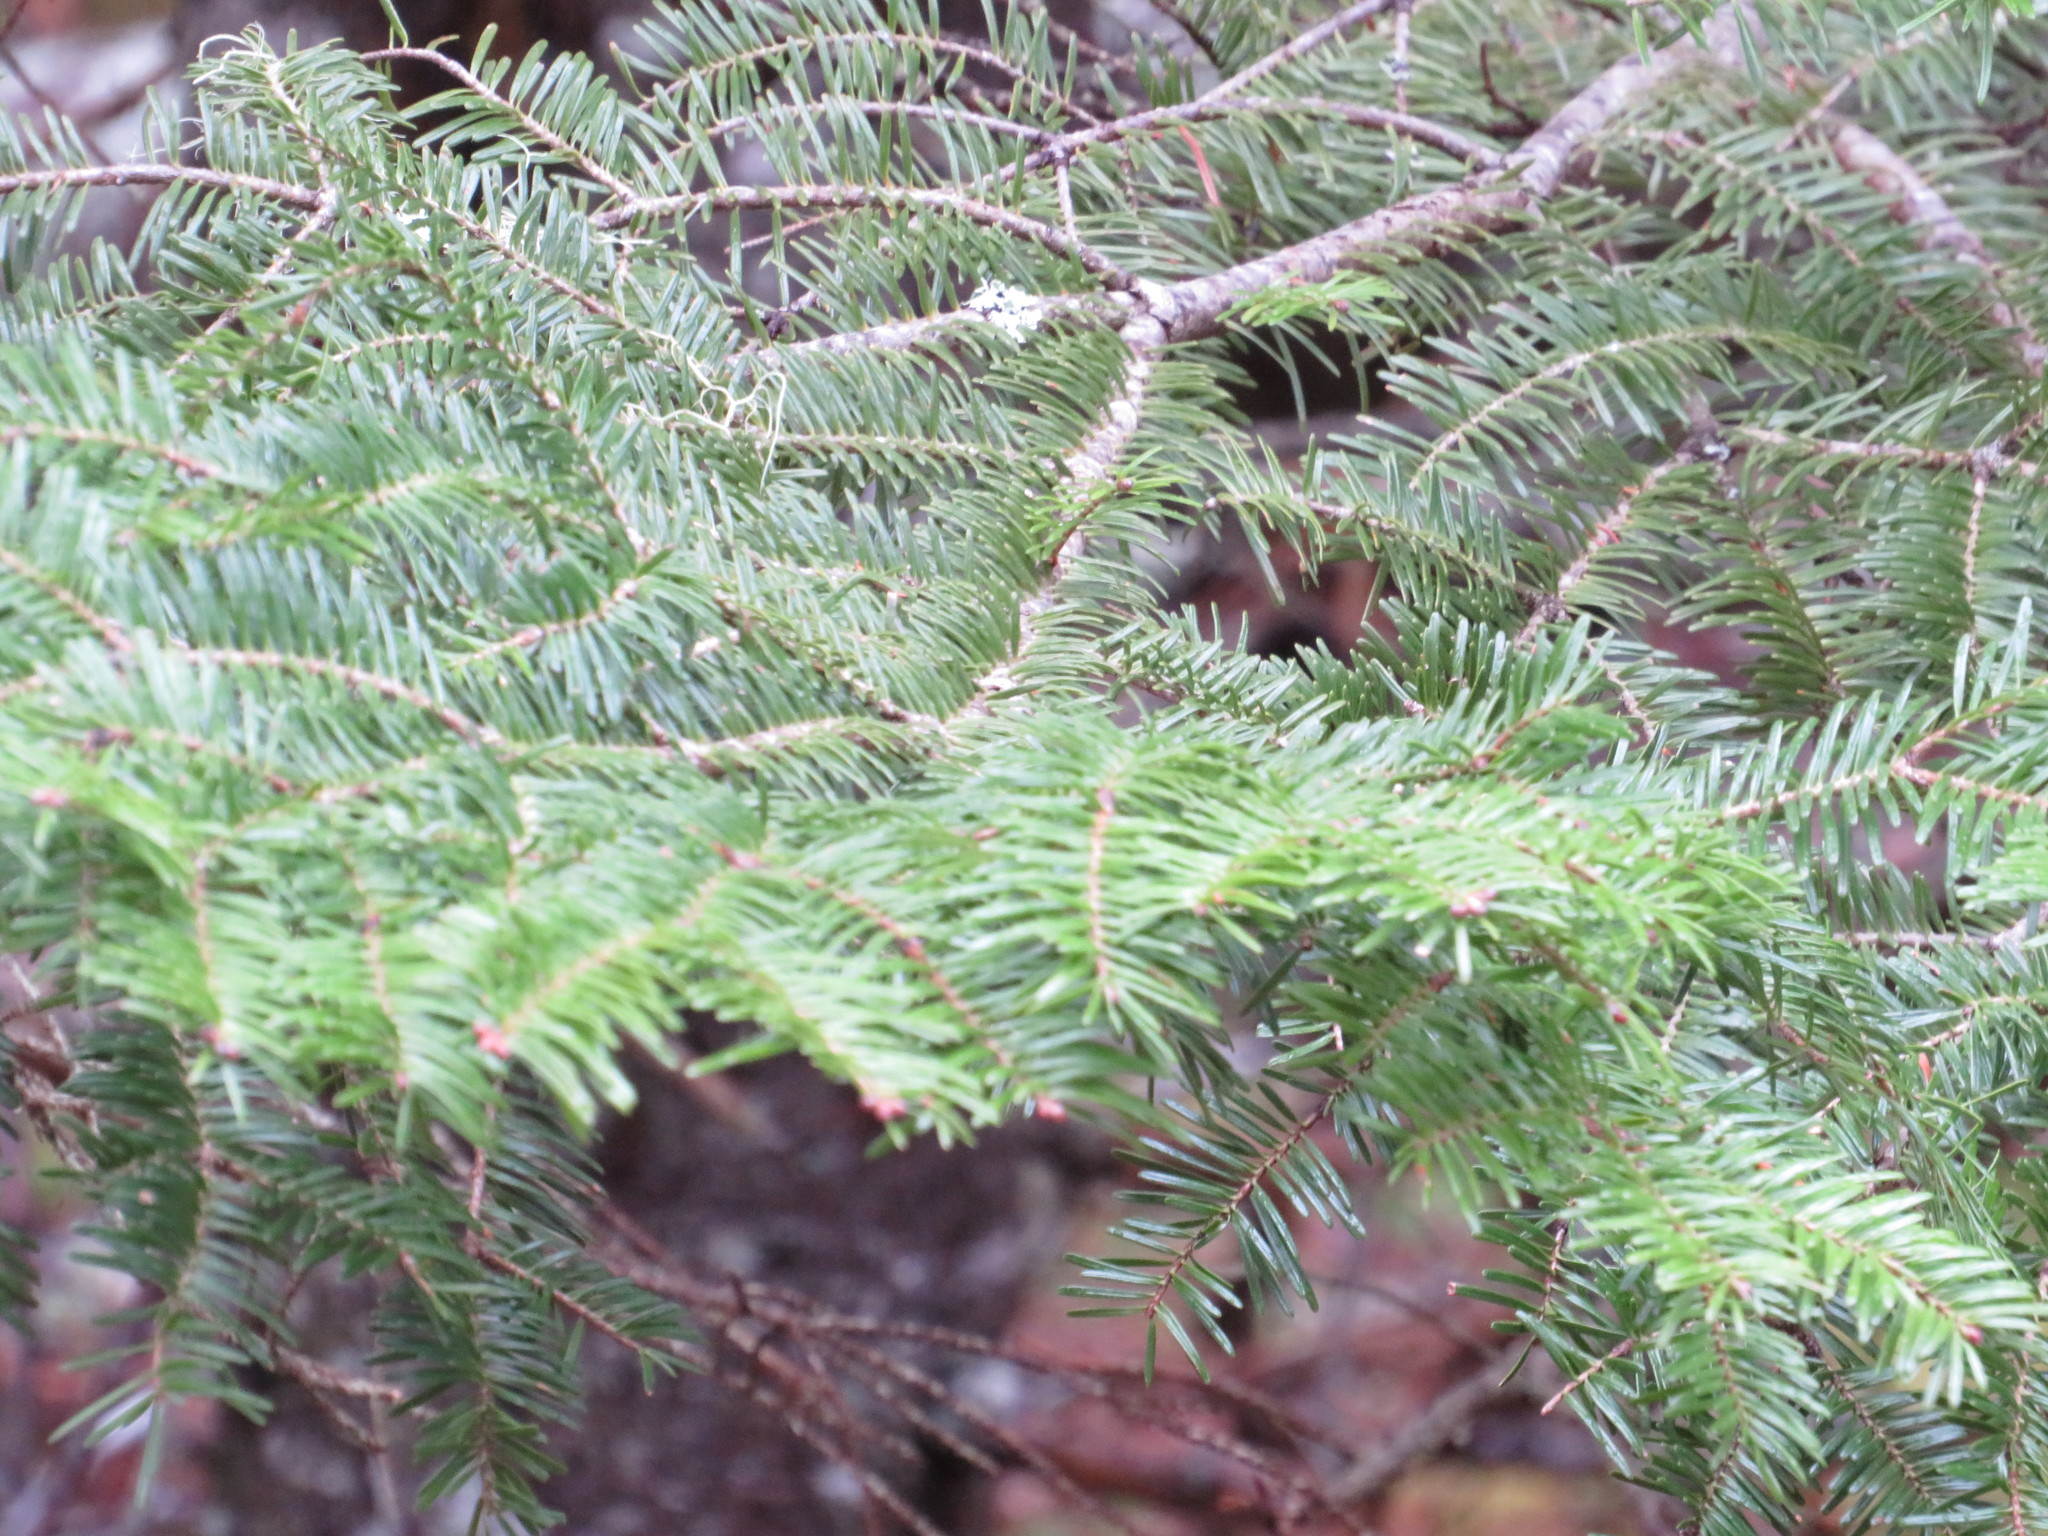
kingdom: Plantae
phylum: Tracheophyta
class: Pinopsida
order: Pinales
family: Pinaceae
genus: Abies
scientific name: Abies balsamea
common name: Balsam fir
